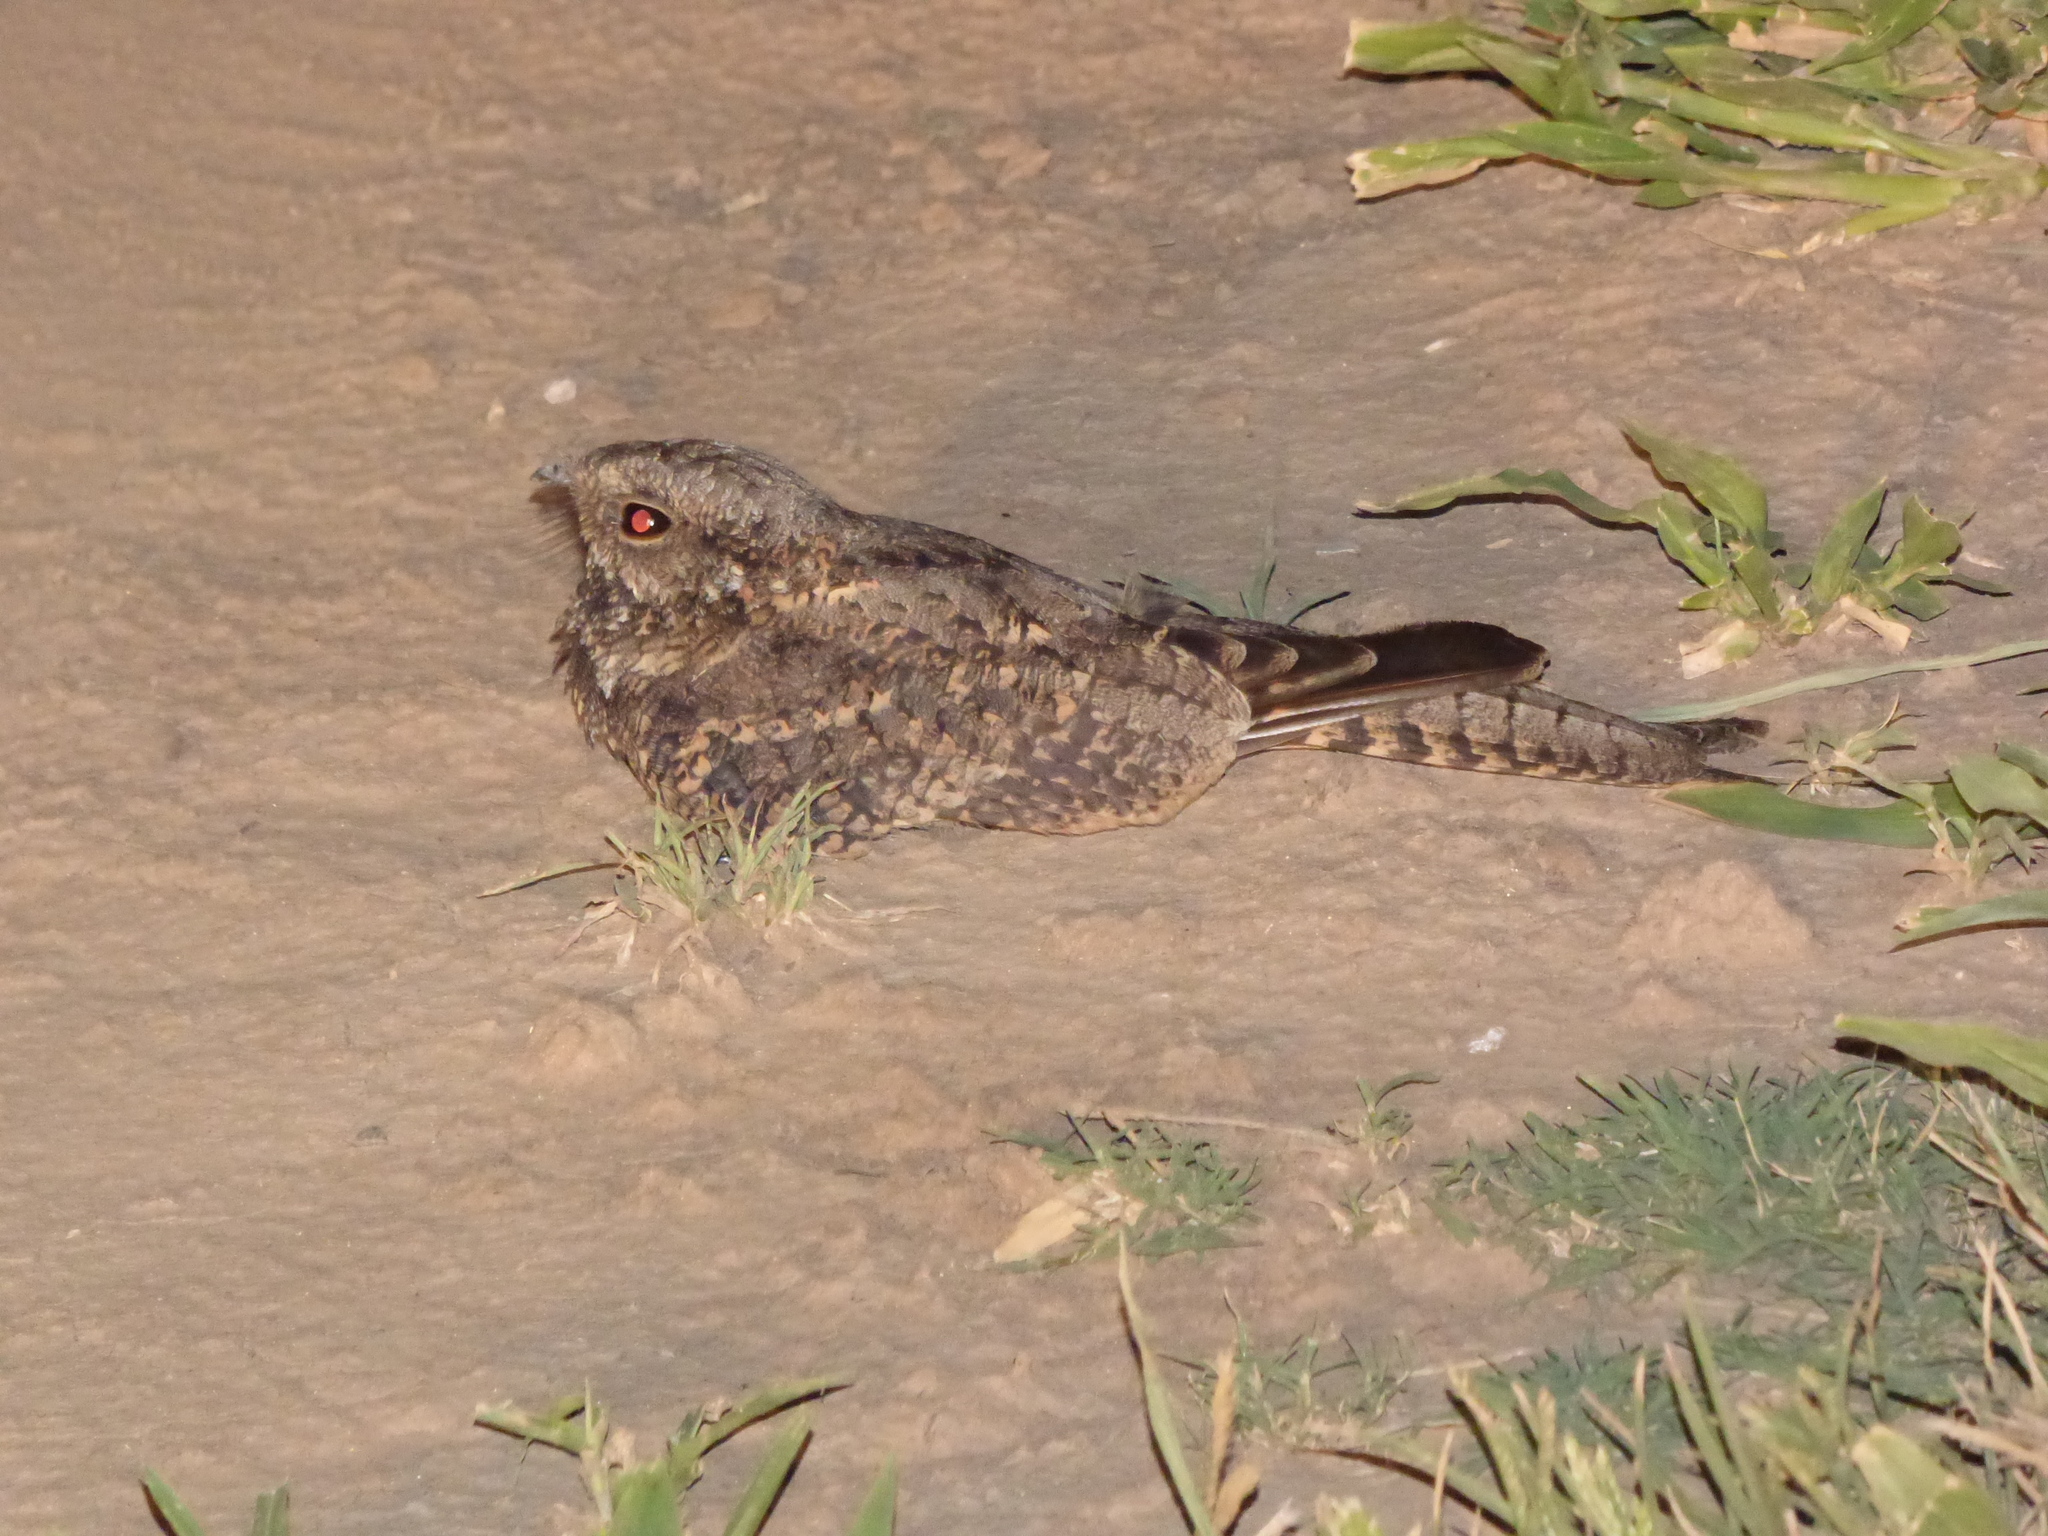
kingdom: Animalia
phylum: Chordata
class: Aves
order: Caprimulgiformes
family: Caprimulgidae
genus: Hydropsalis
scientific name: Hydropsalis torquata
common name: Scissor-tailed nightjar
